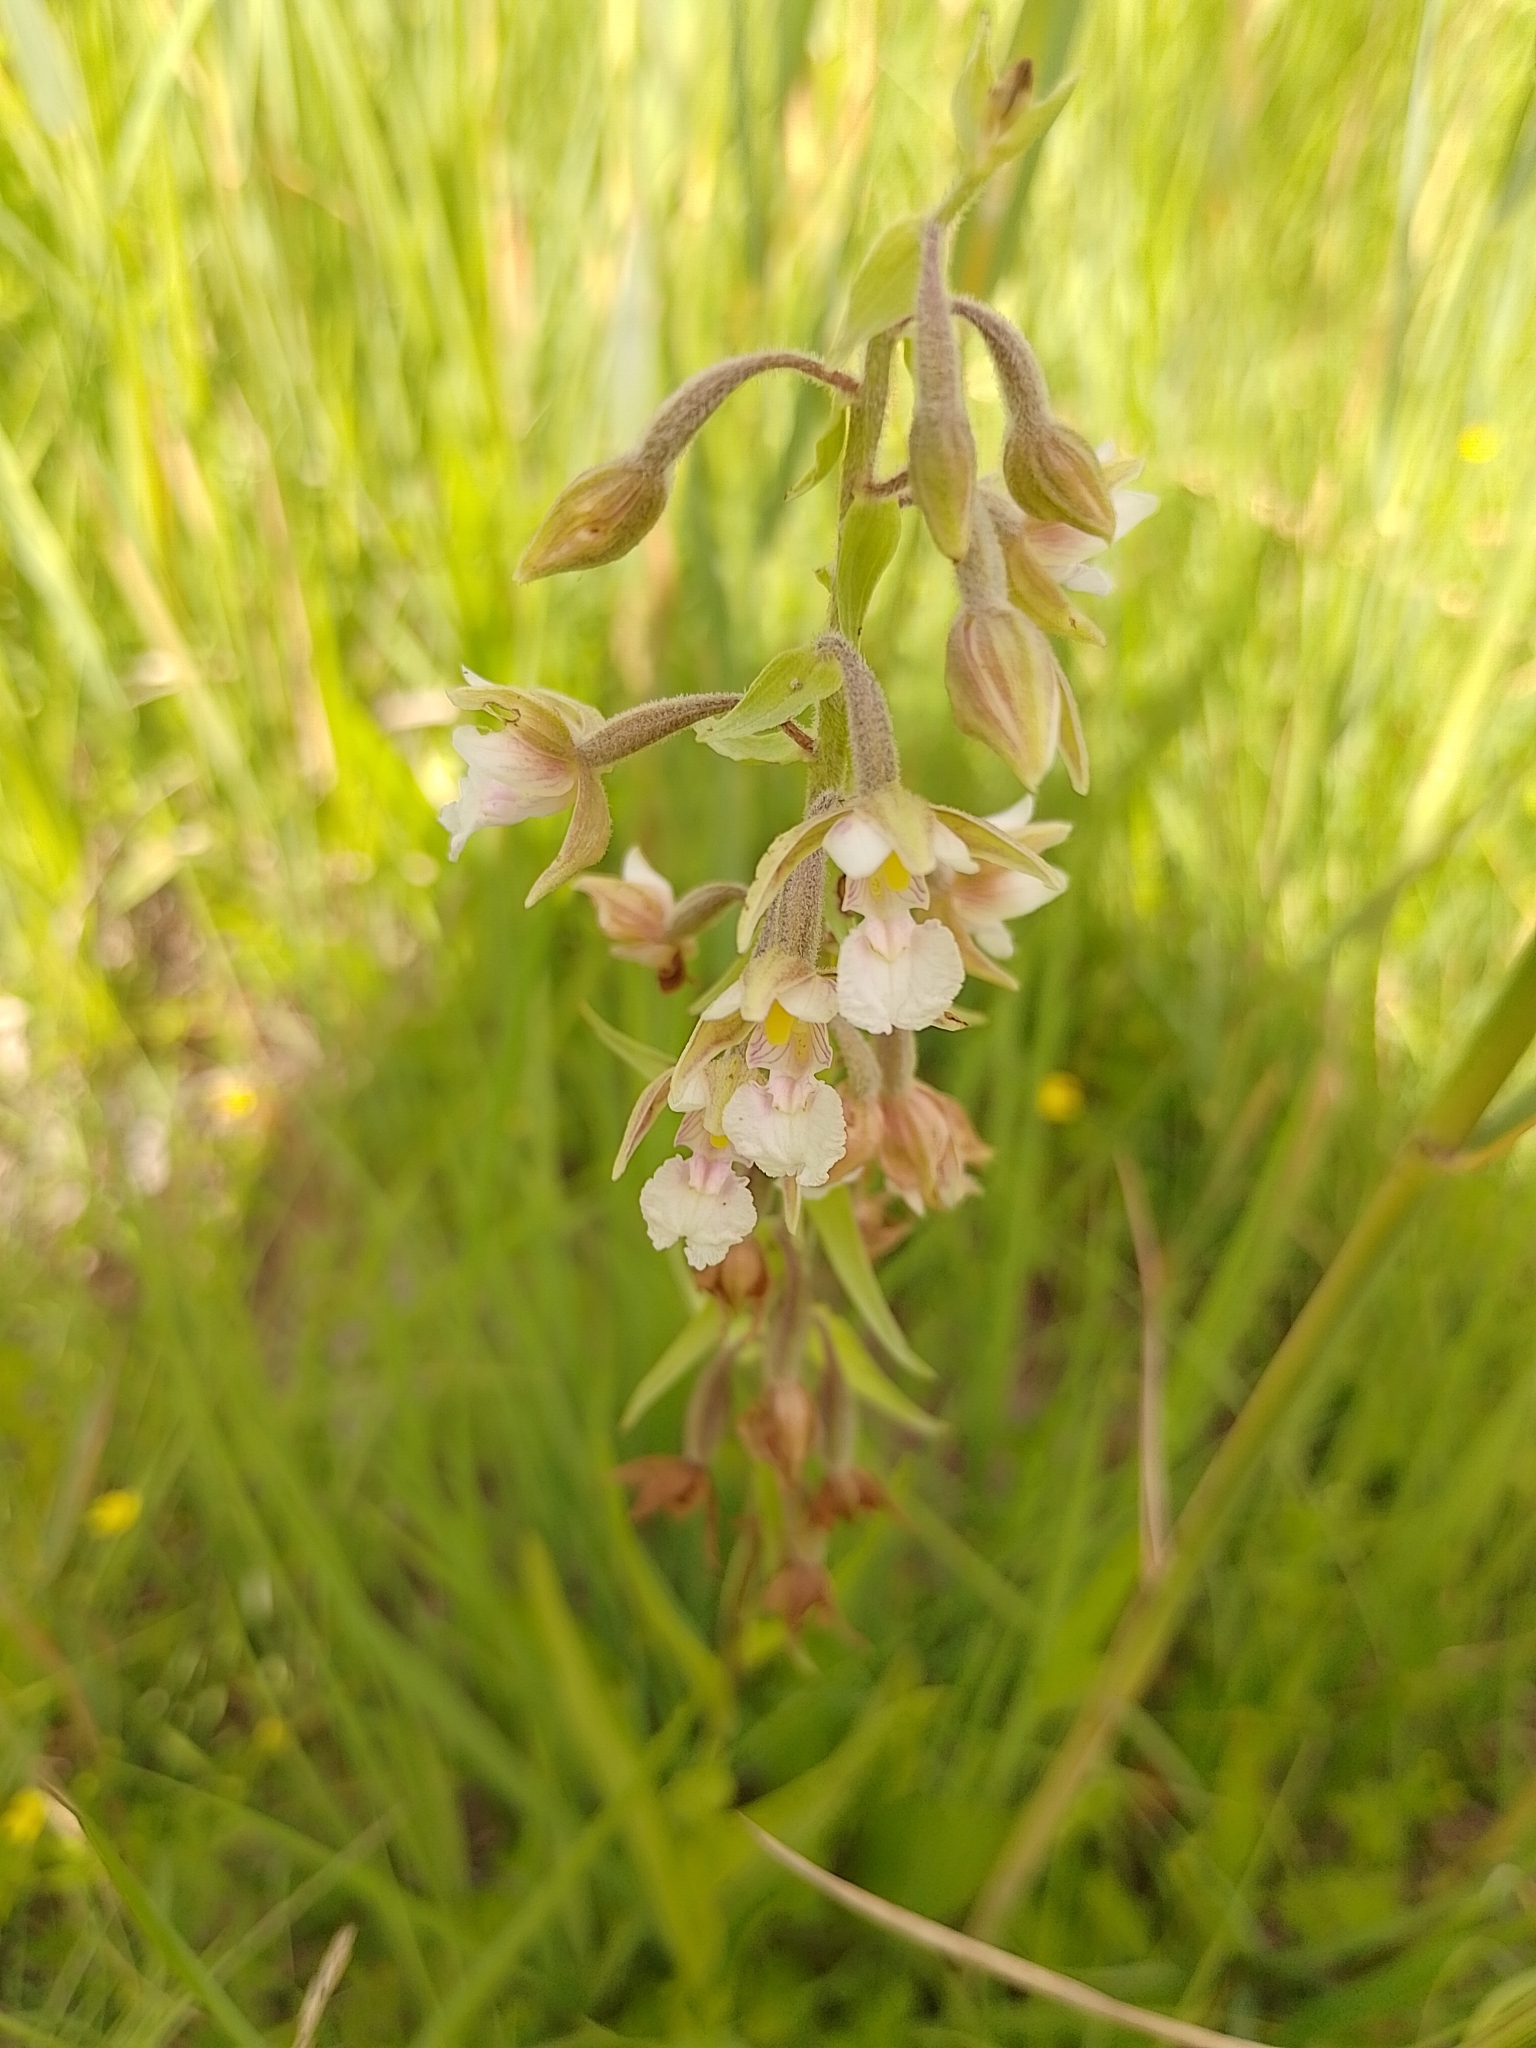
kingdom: Plantae
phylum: Tracheophyta
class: Liliopsida
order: Asparagales
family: Orchidaceae
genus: Epipactis
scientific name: Epipactis palustris
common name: Marsh helleborine
